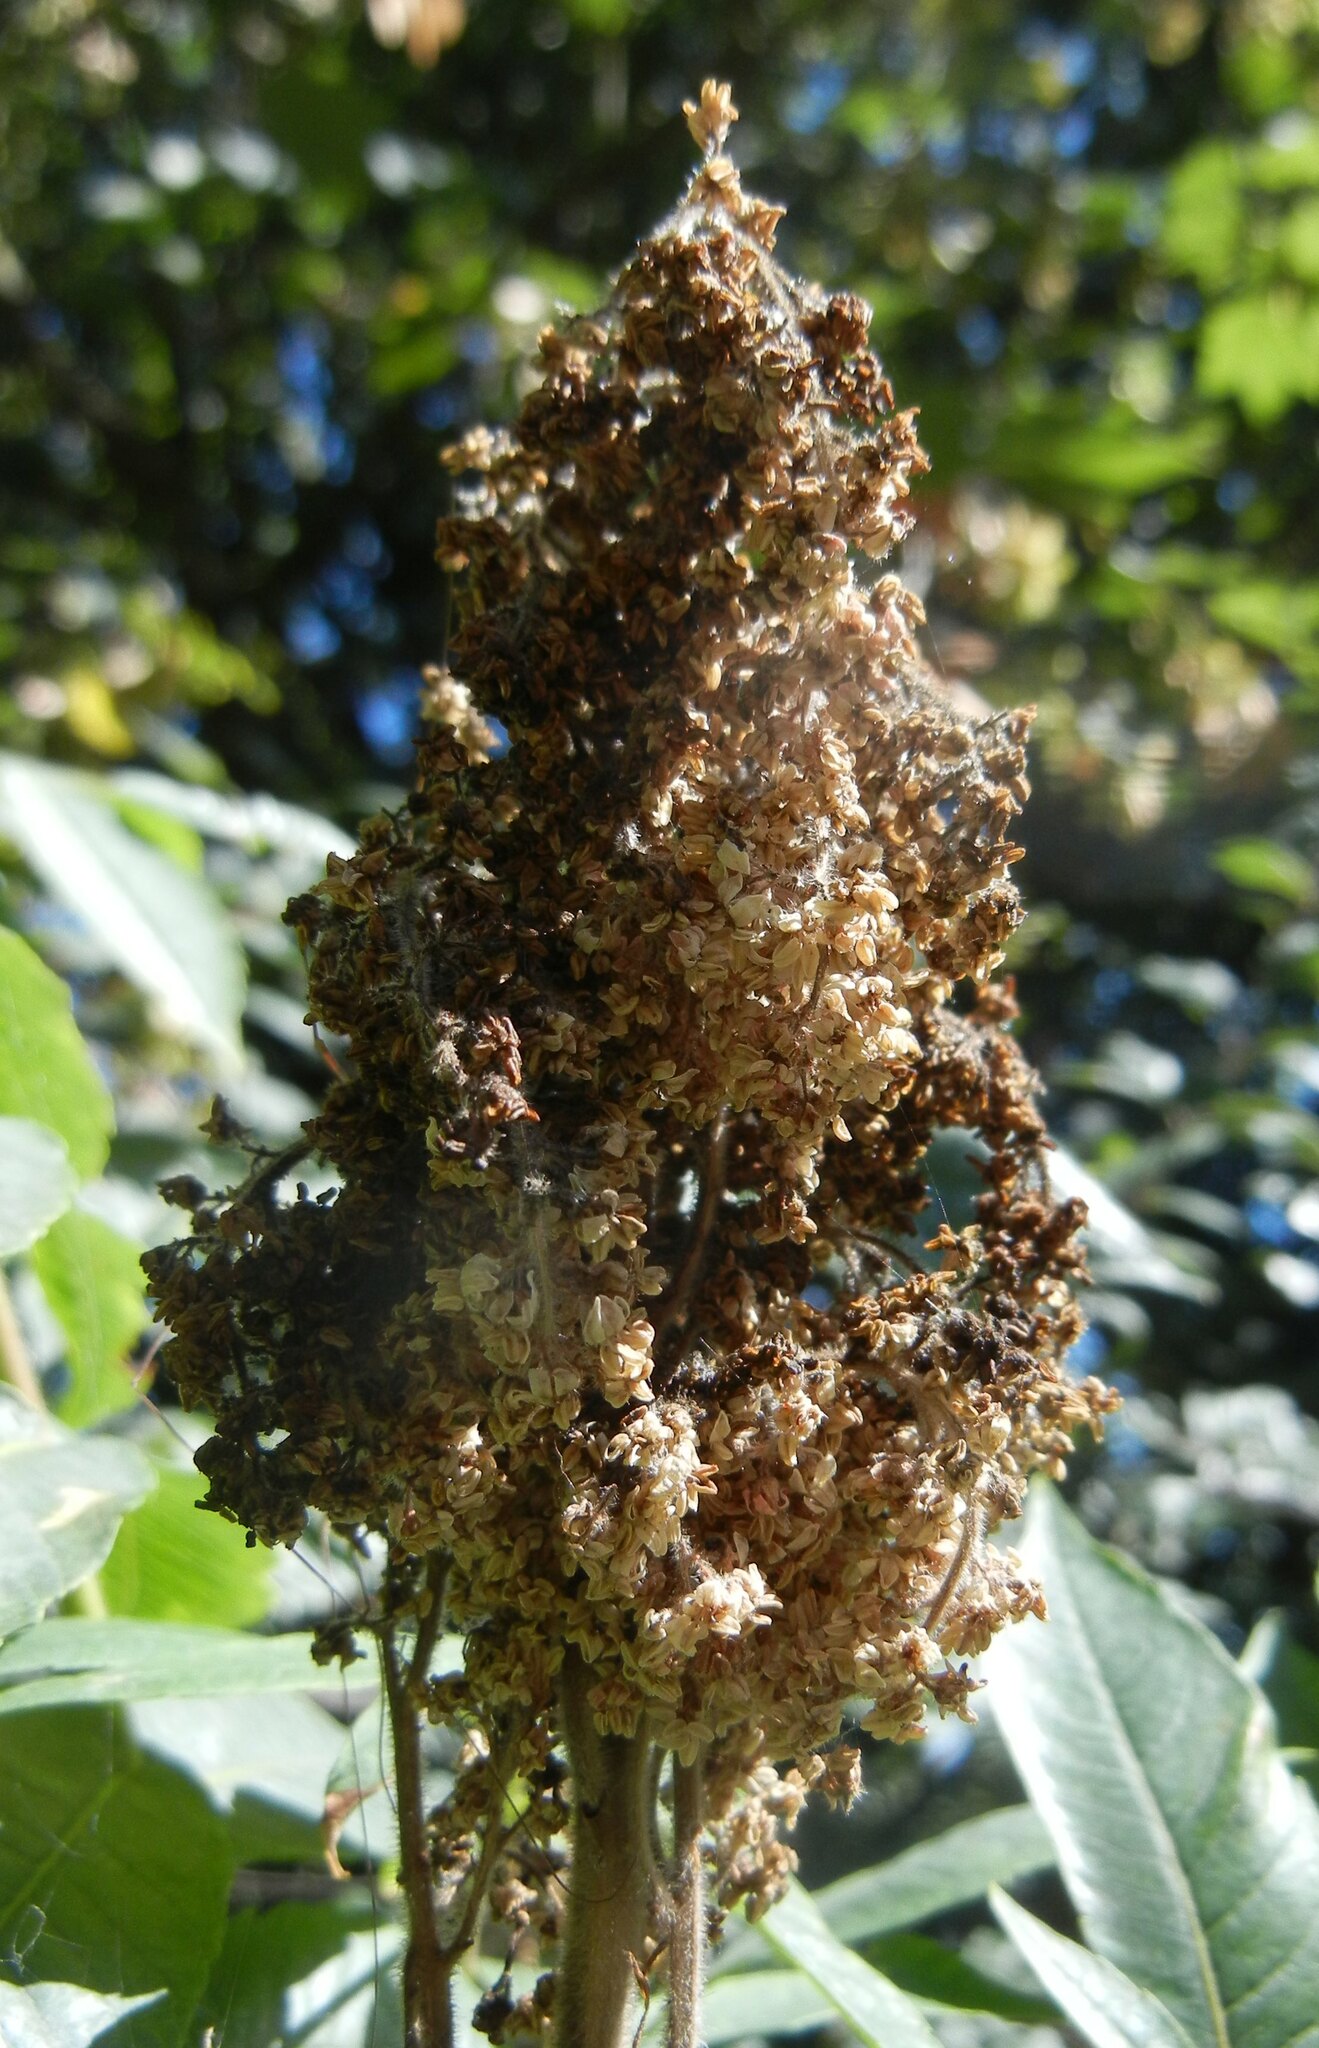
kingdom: Plantae
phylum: Tracheophyta
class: Magnoliopsida
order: Sapindales
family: Anacardiaceae
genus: Rhus
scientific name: Rhus typhina
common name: Staghorn sumac
